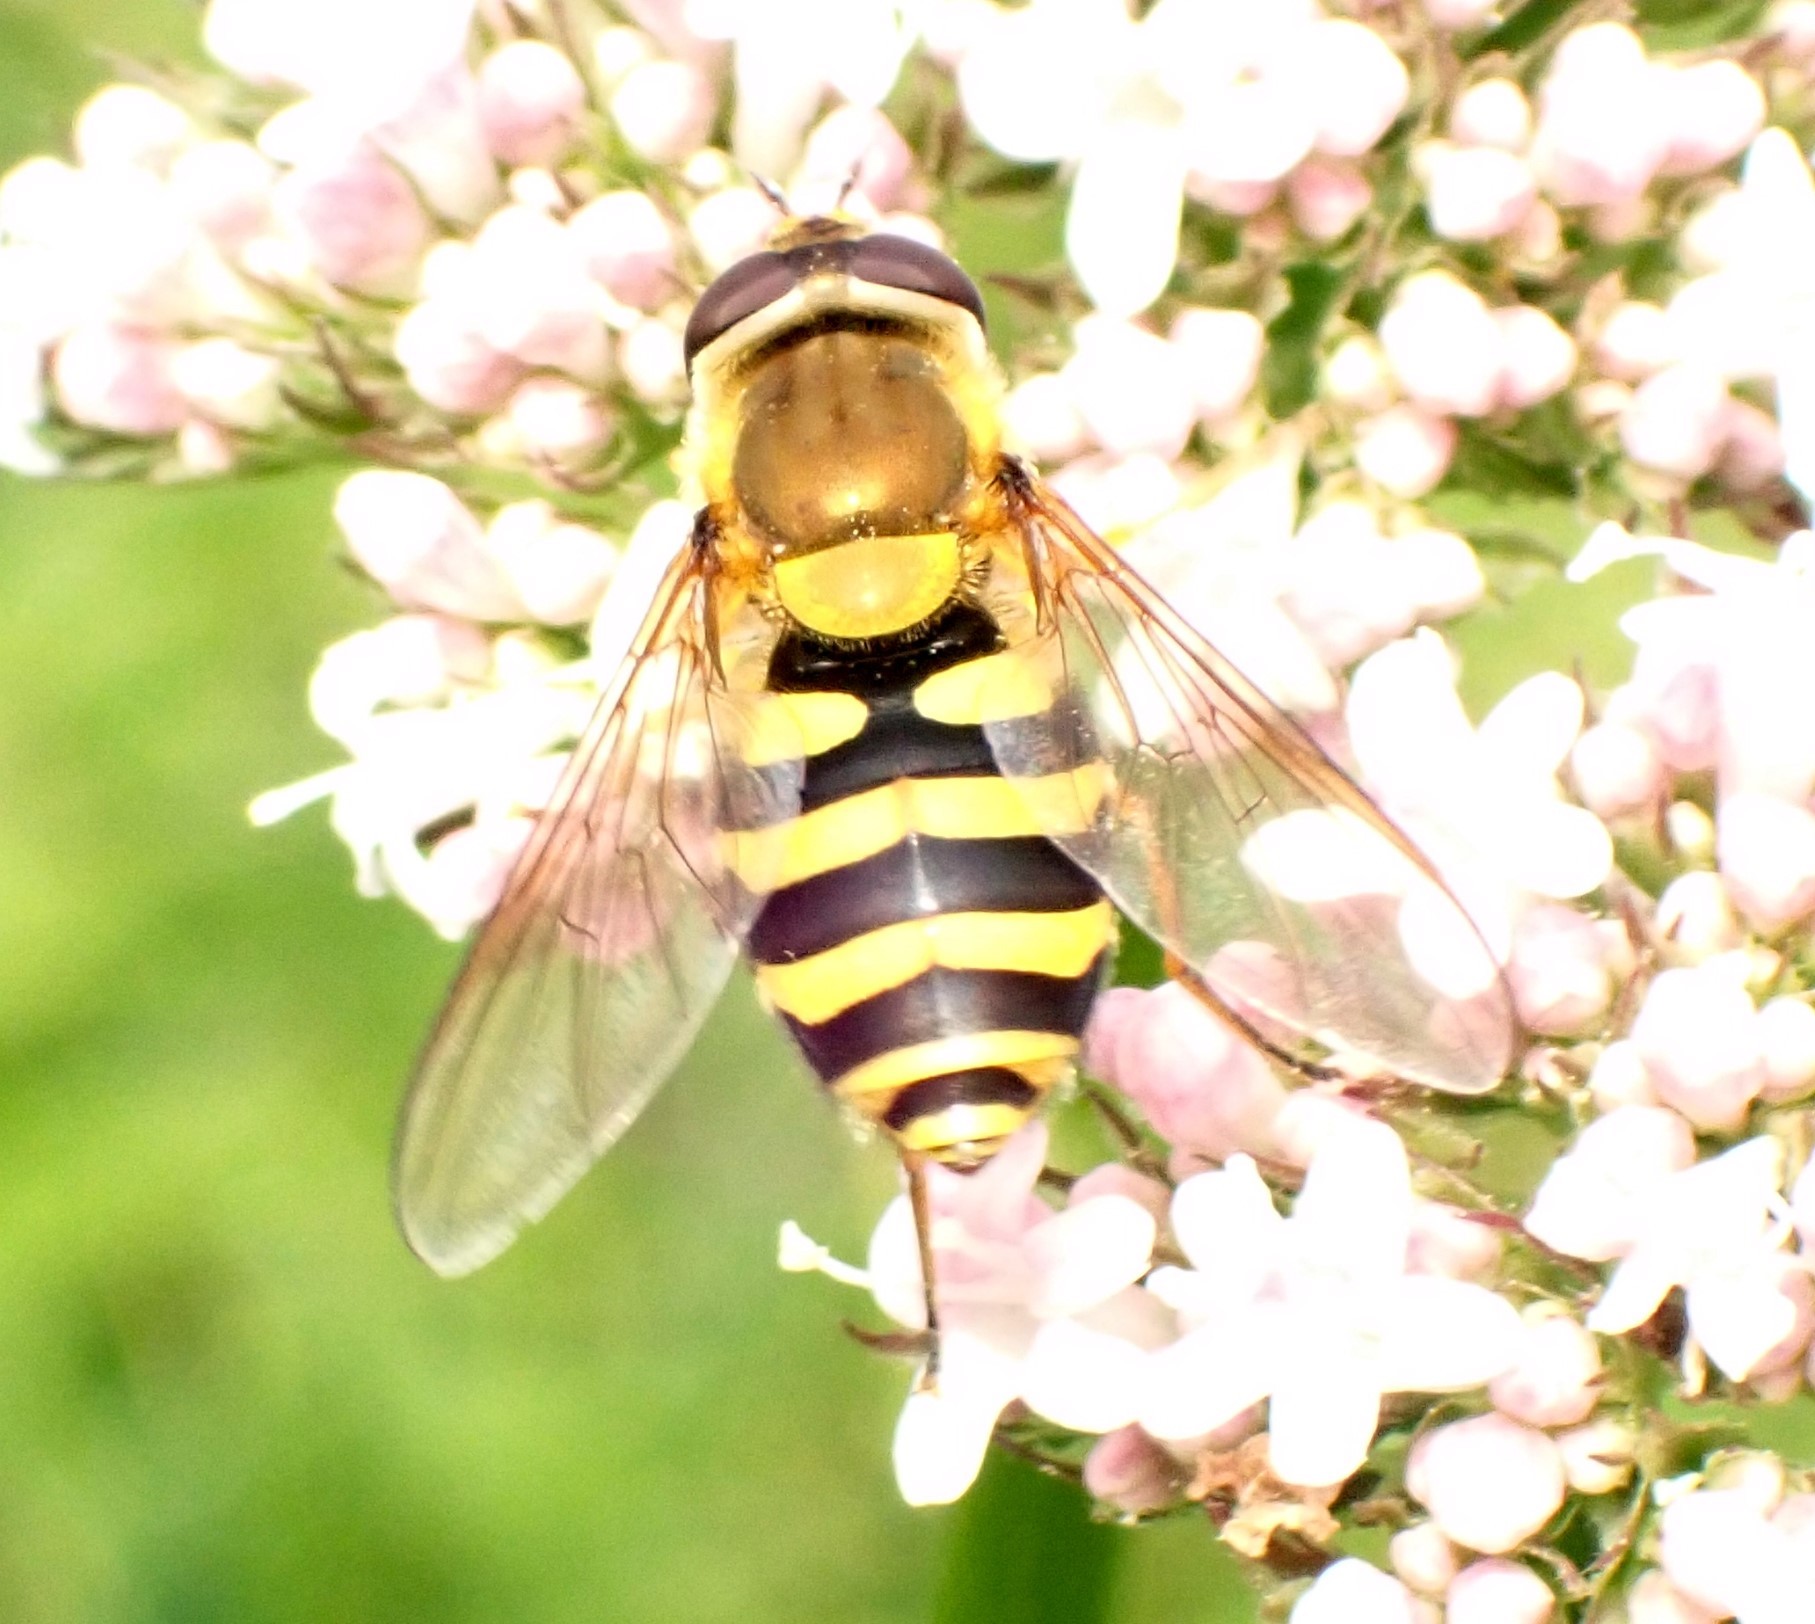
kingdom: Animalia
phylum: Arthropoda
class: Insecta
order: Diptera
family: Syrphidae
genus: Syrphus
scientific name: Syrphus
